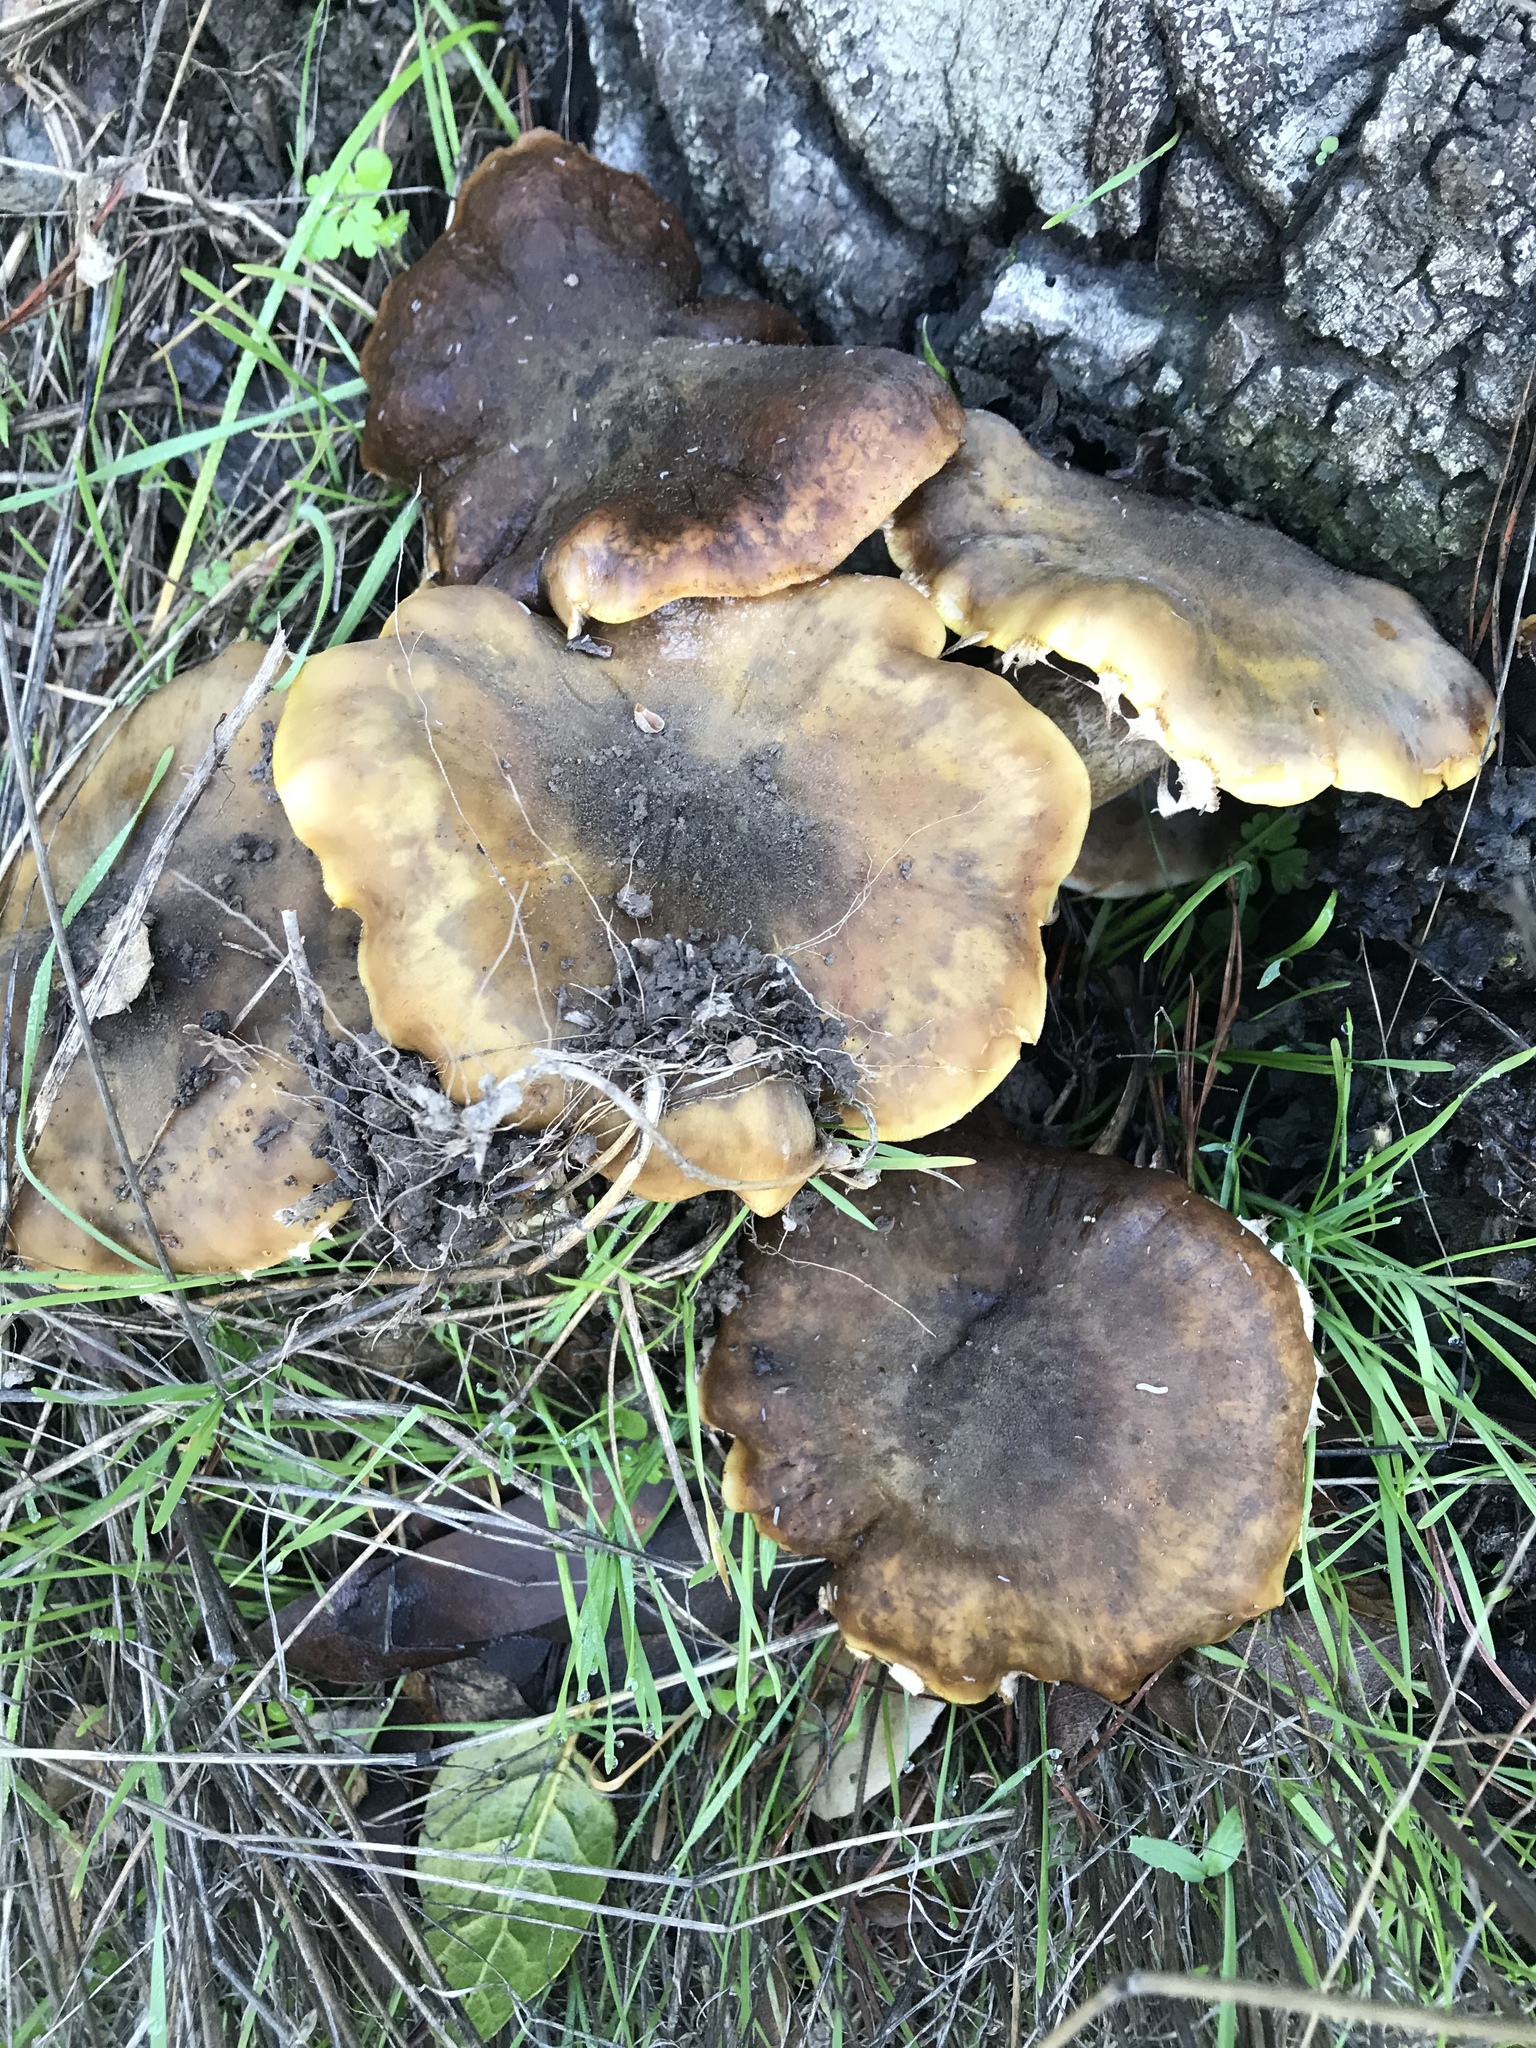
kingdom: Fungi
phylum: Basidiomycota
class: Agaricomycetes
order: Agaricales
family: Physalacriaceae
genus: Armillaria
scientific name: Armillaria mellea
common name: Honey fungus
